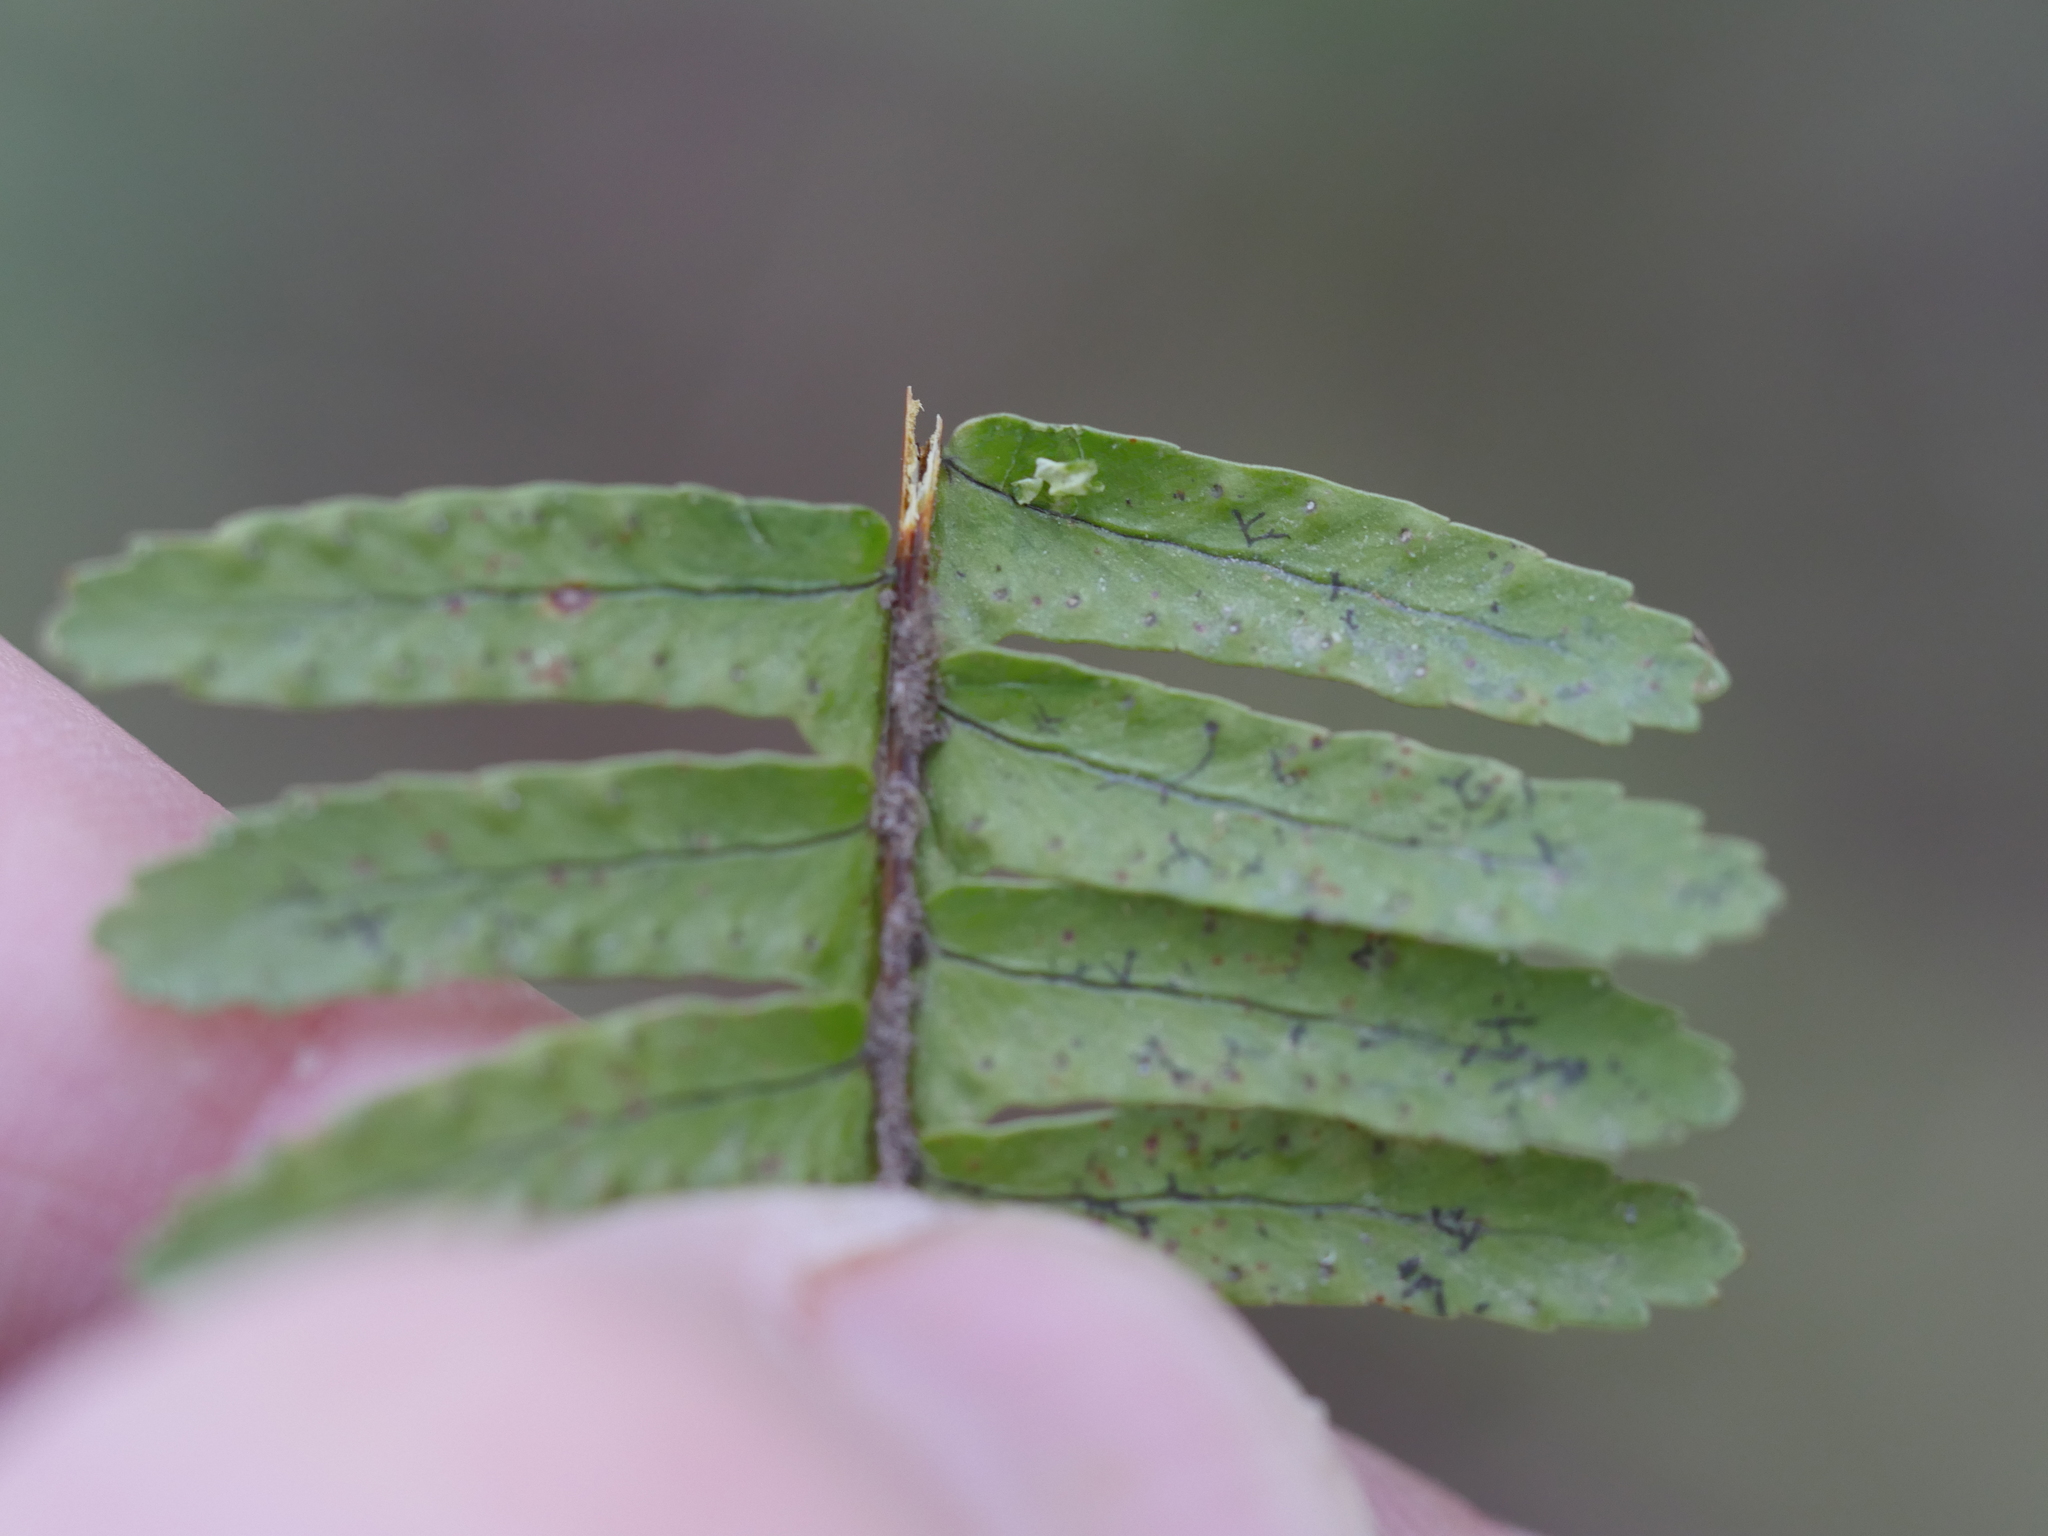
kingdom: Plantae
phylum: Tracheophyta
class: Polypodiopsida
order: Polypodiales
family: Nephrolepidaceae
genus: Nephrolepis
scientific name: Nephrolepis cordifolia
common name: Narrow swordfern
